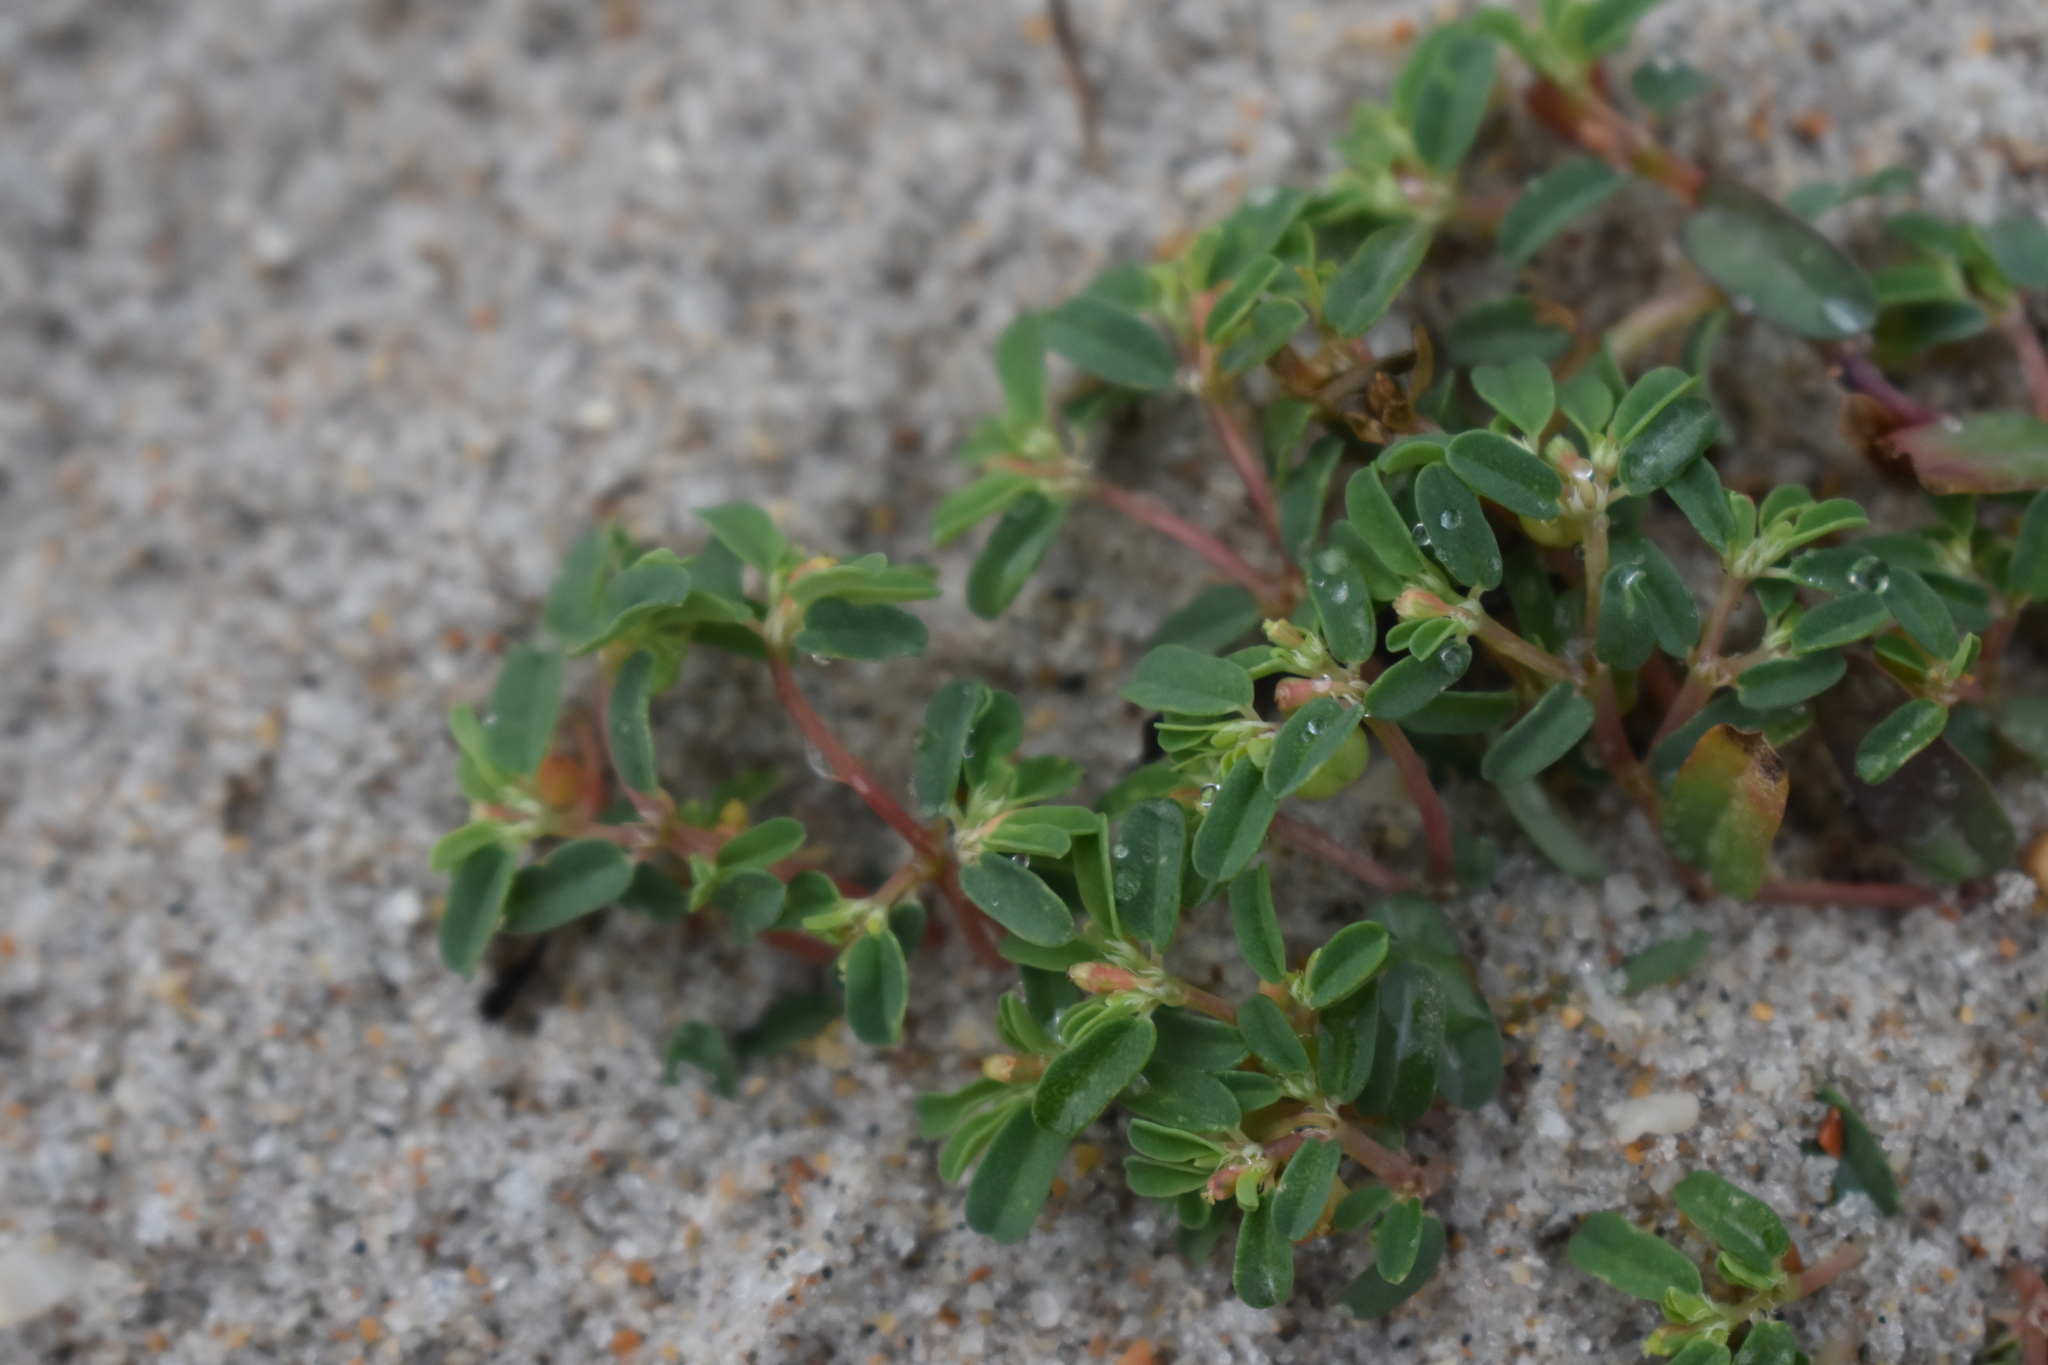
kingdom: Plantae
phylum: Tracheophyta
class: Magnoliopsida
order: Malpighiales
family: Euphorbiaceae
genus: Euphorbia
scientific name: Euphorbia bombensis
